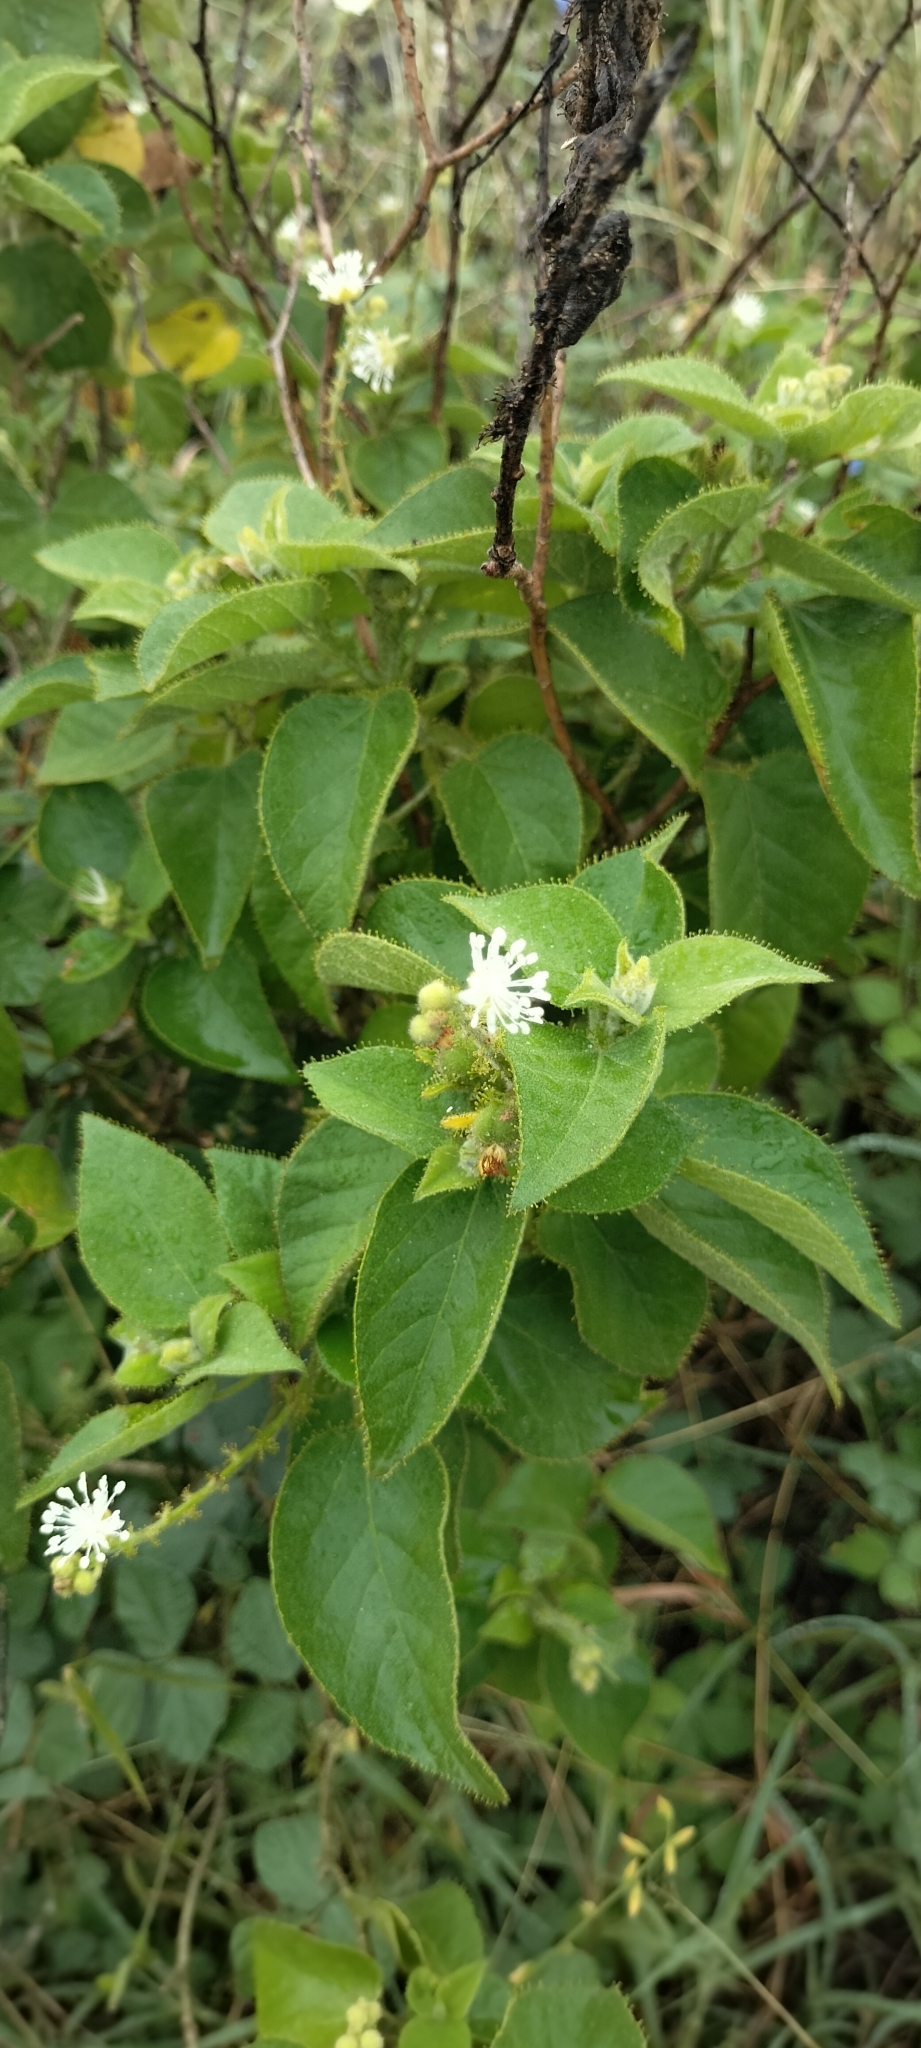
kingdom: Plantae
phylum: Tracheophyta
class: Magnoliopsida
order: Malpighiales
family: Euphorbiaceae
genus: Croton
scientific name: Croton ciliatoglandulifer
